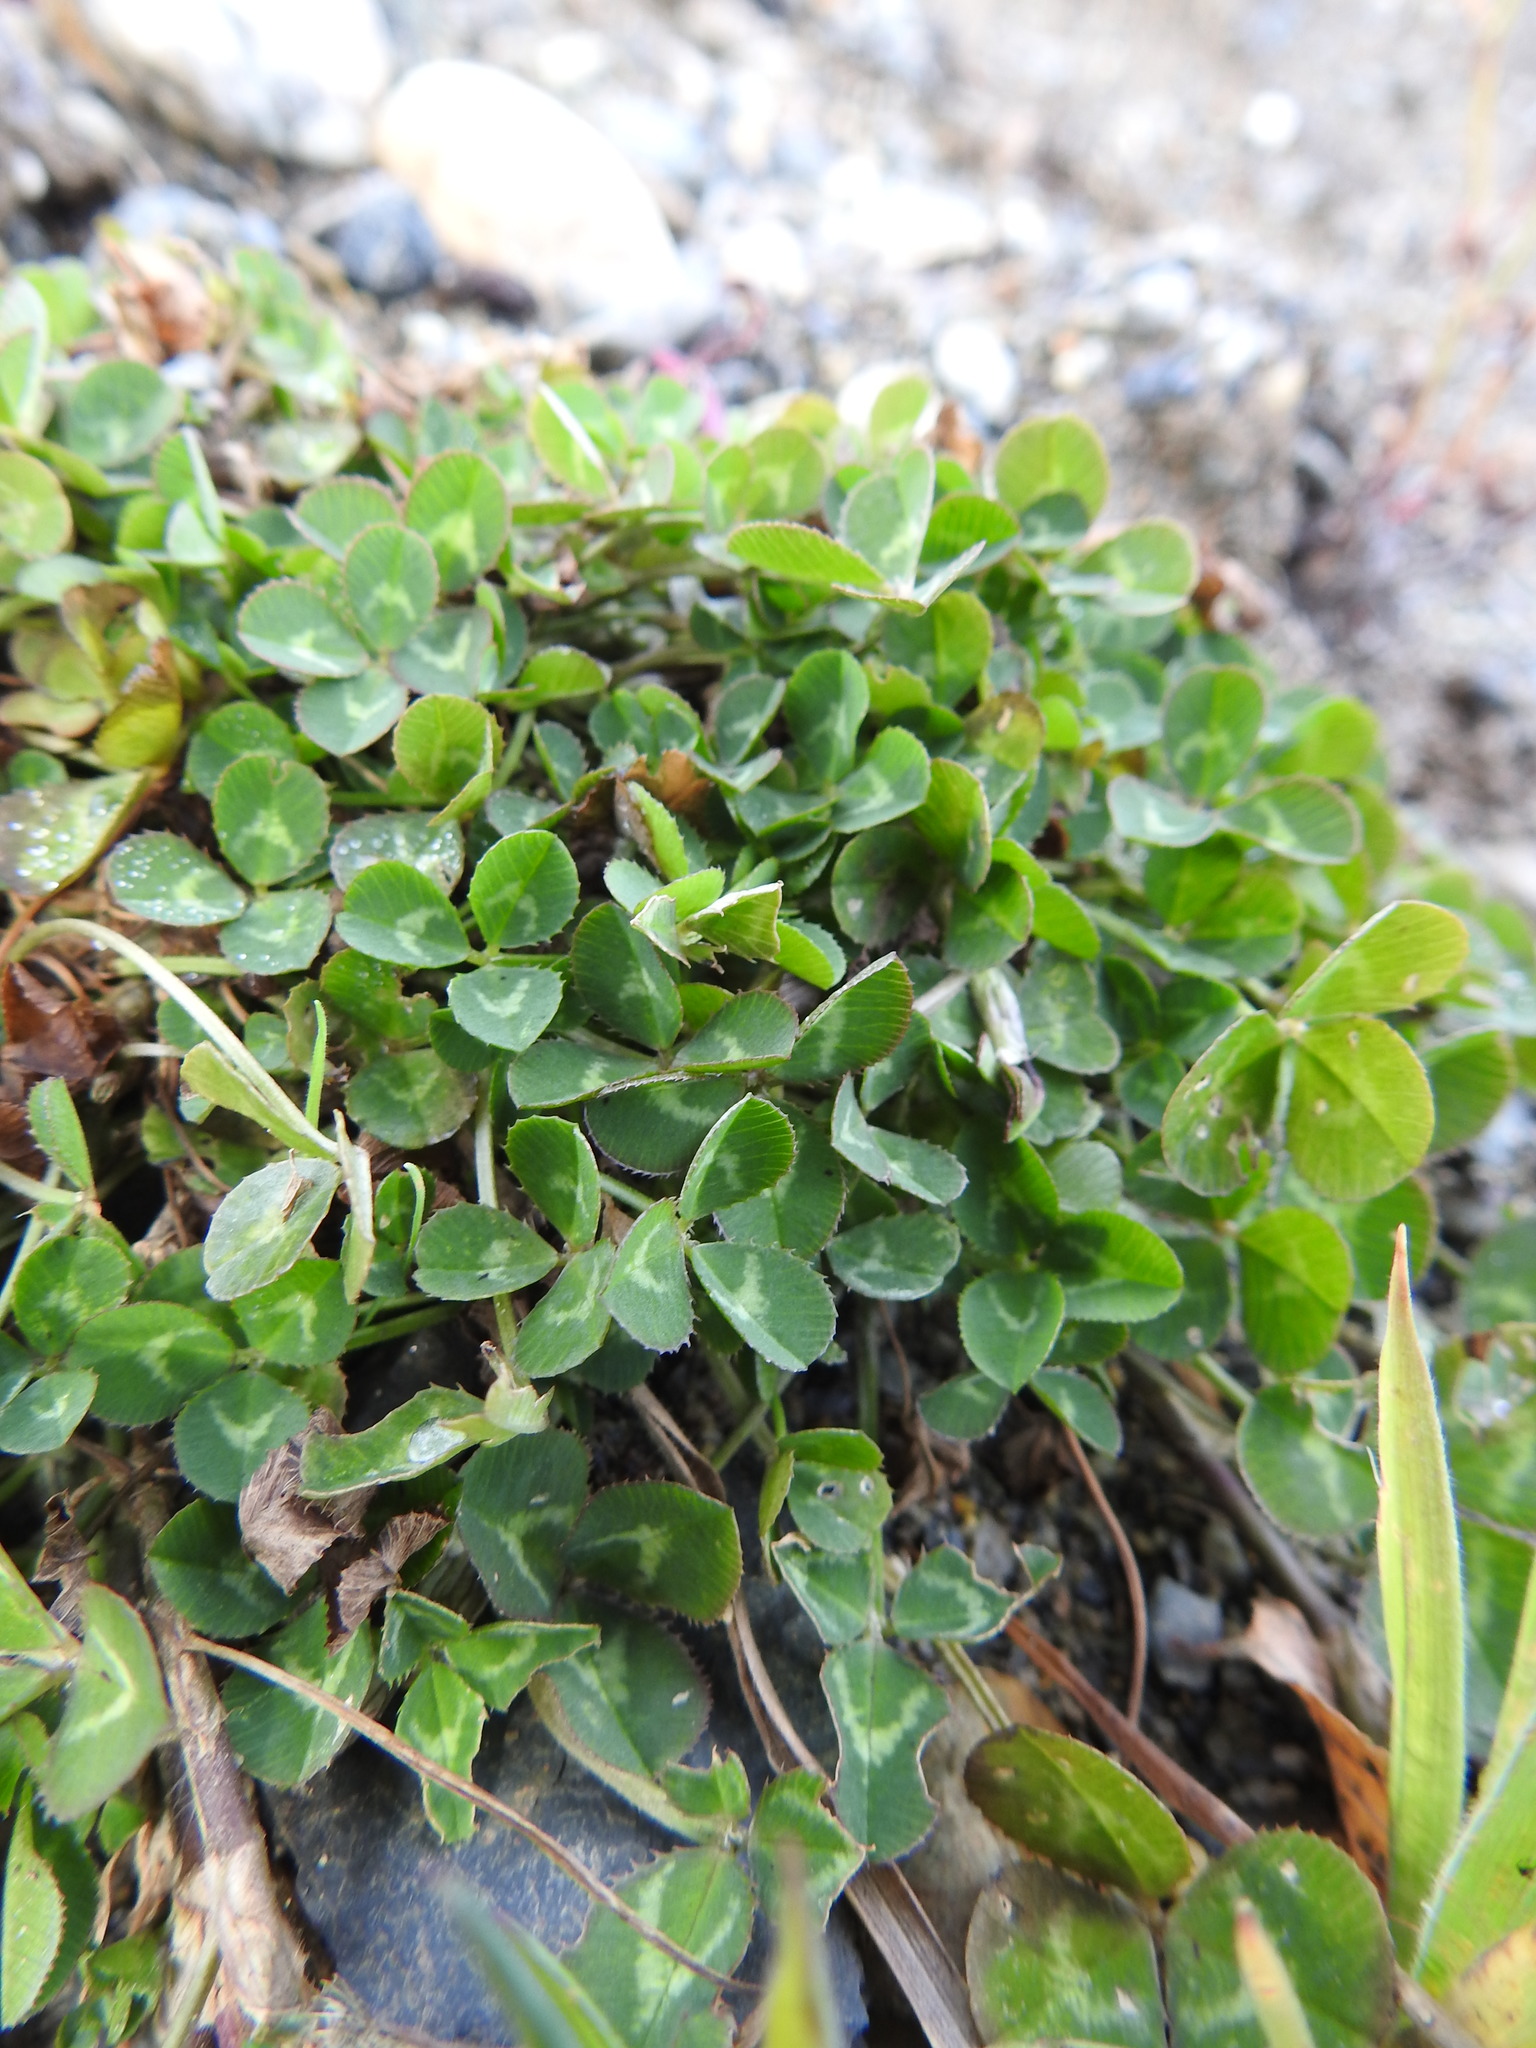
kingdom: Plantae
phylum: Tracheophyta
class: Magnoliopsida
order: Fabales
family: Fabaceae
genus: Trifolium
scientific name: Trifolium repens
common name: White clover
